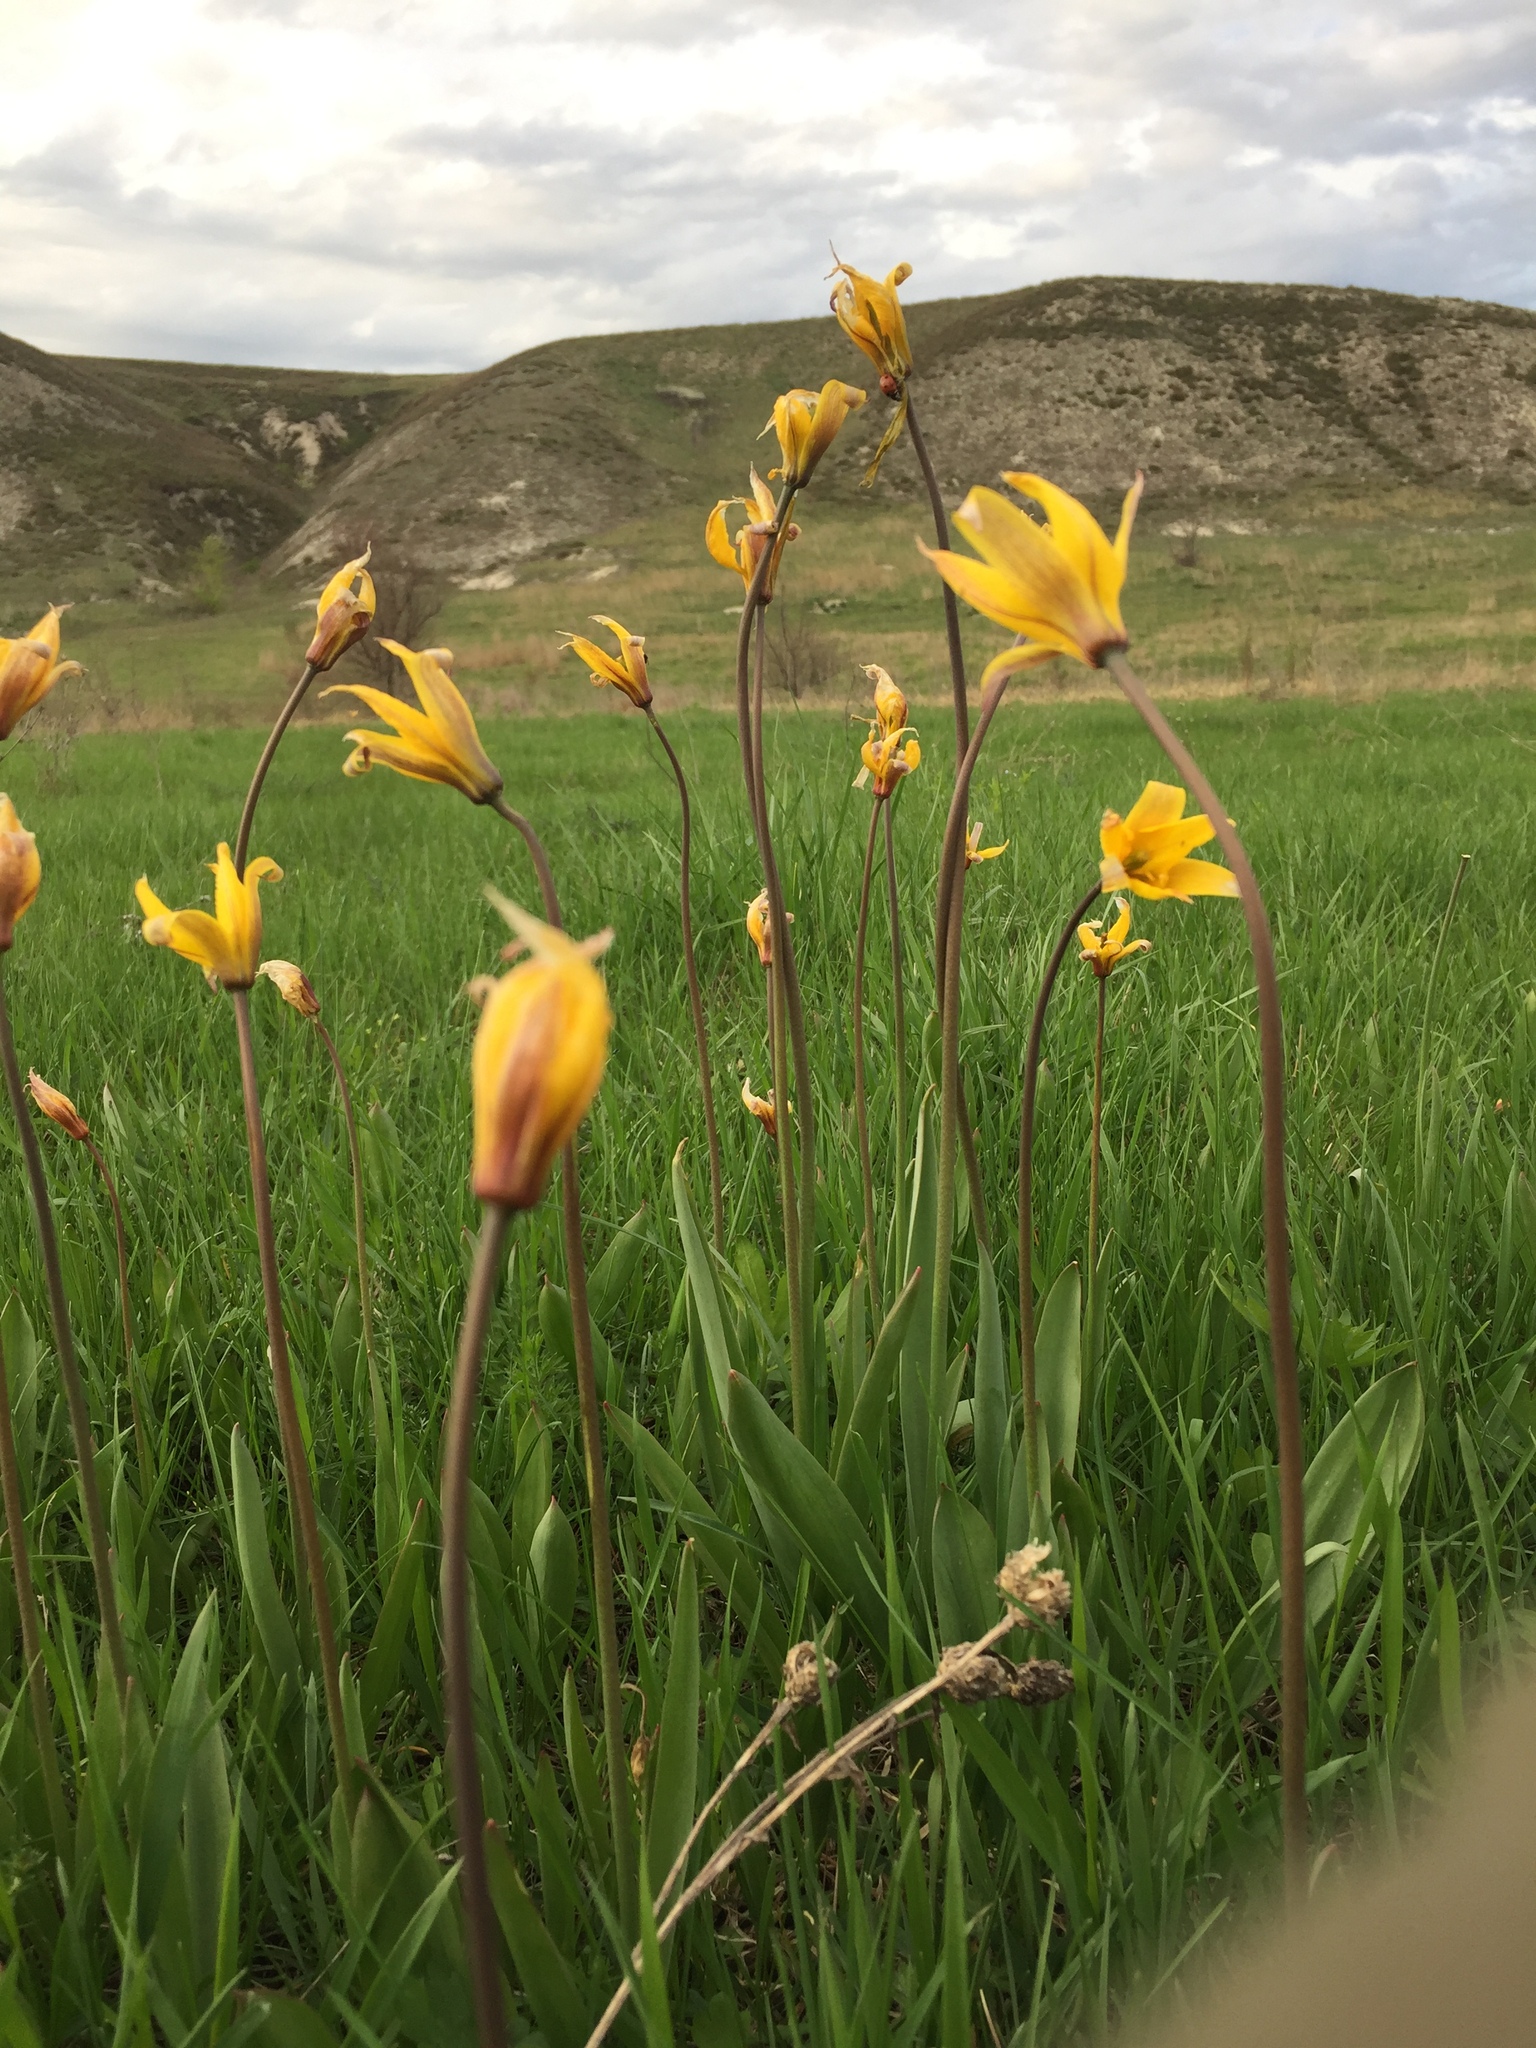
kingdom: Plantae
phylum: Tracheophyta
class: Liliopsida
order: Liliales
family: Liliaceae
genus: Tulipa
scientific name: Tulipa sylvestris
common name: Wild tulip
